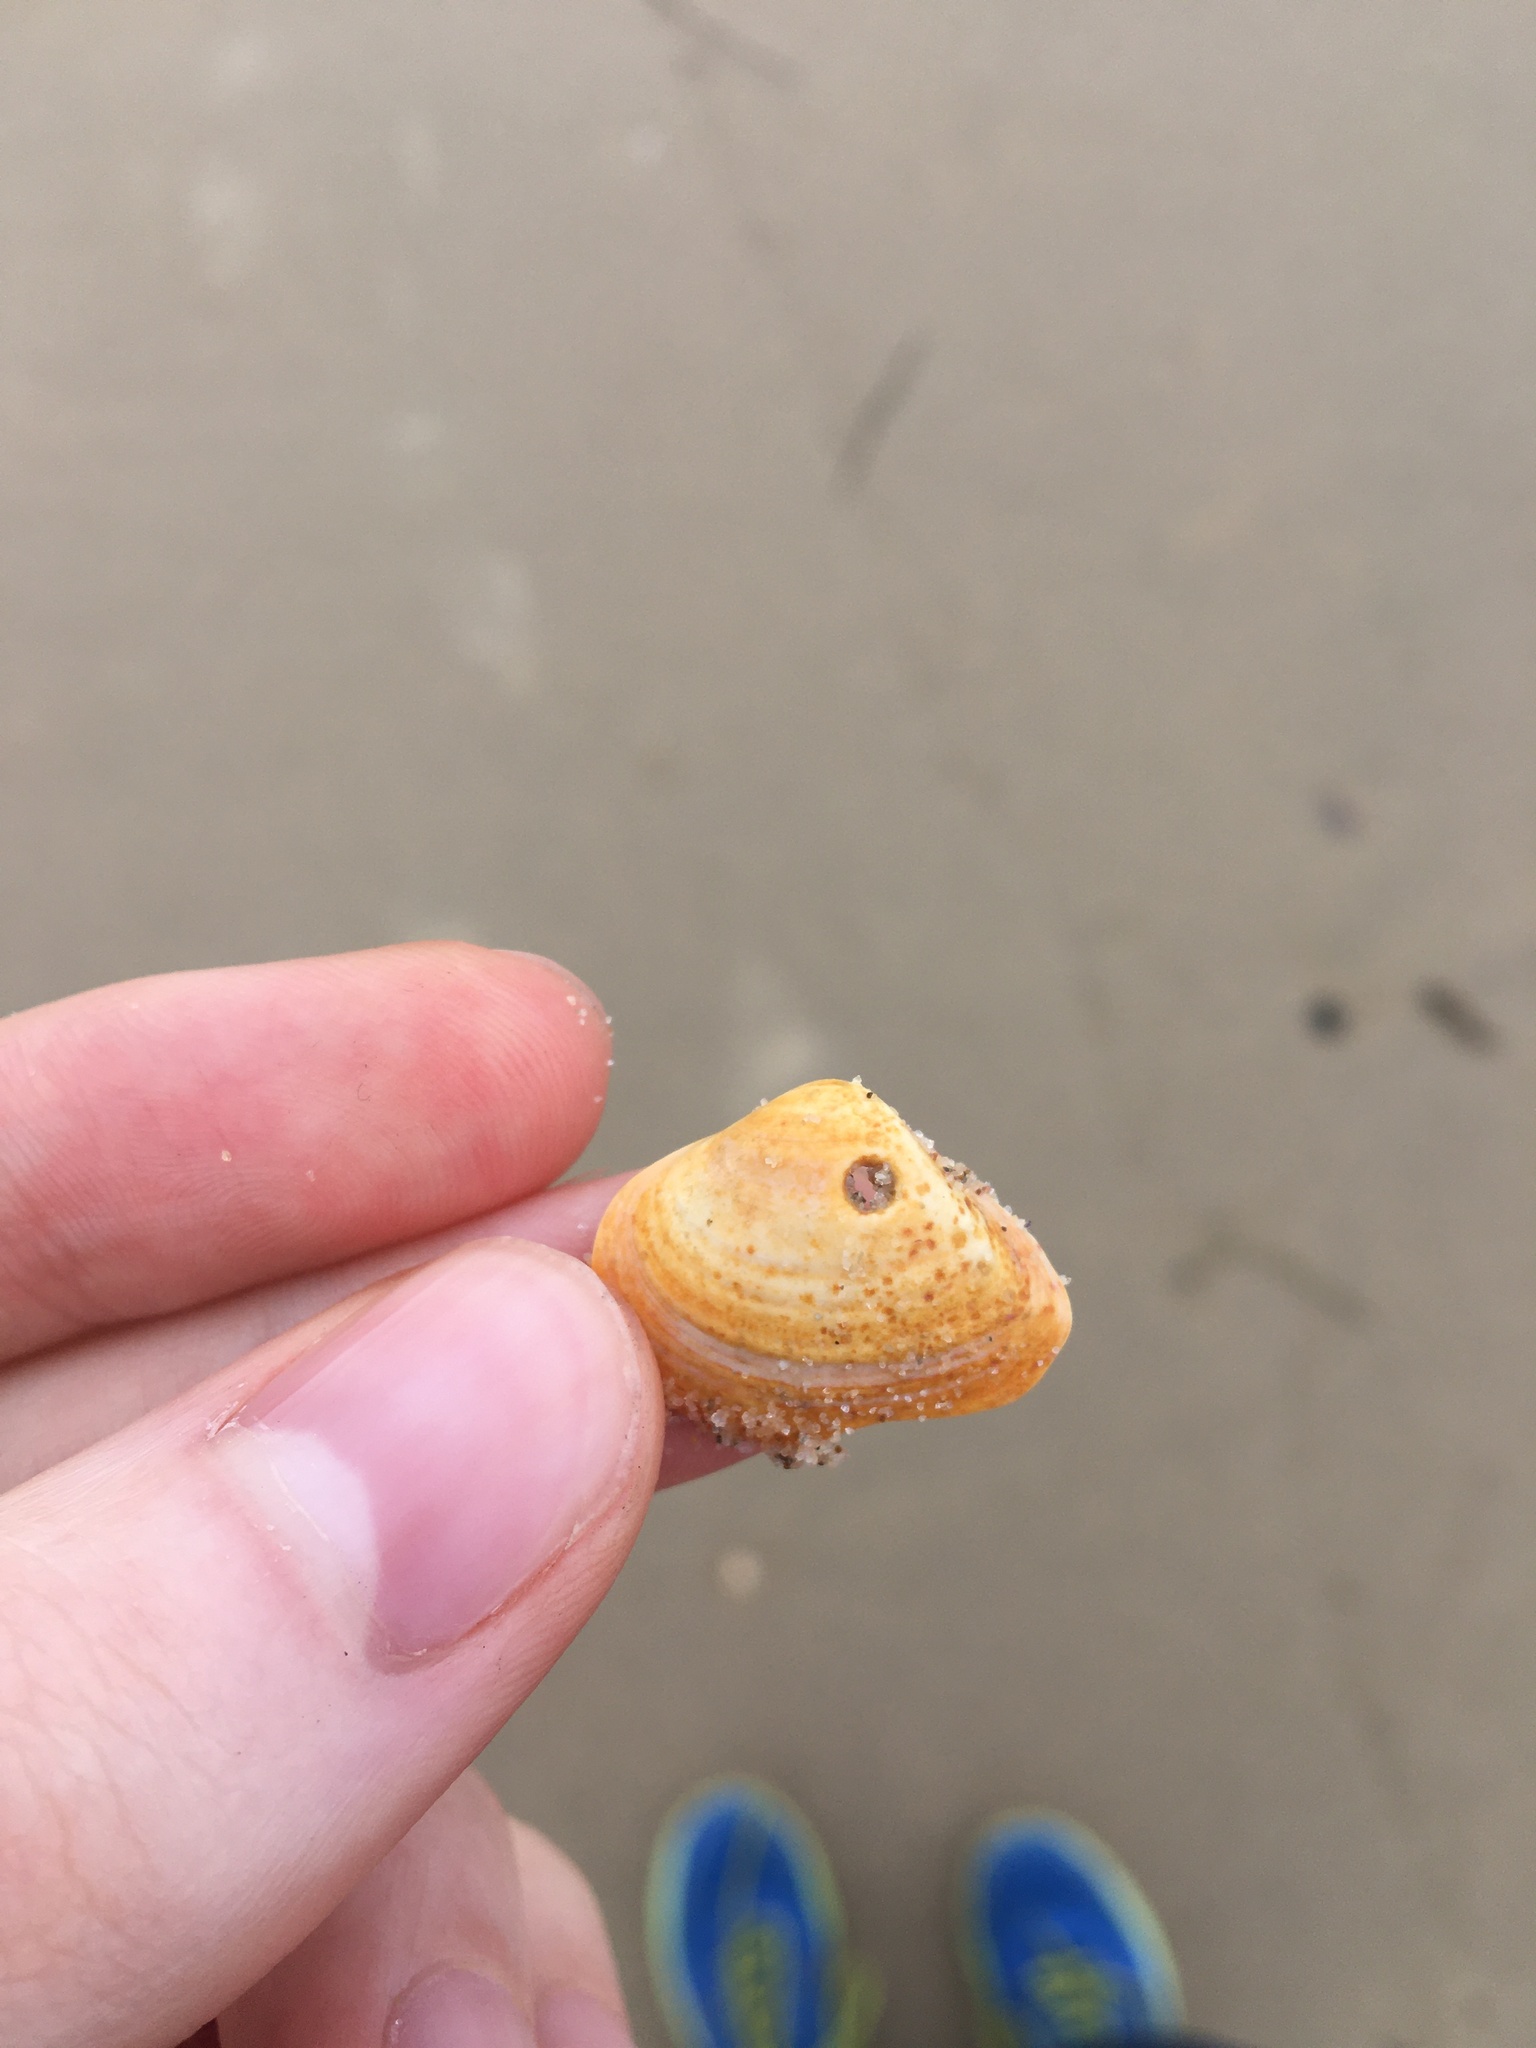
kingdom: Animalia
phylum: Mollusca
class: Bivalvia
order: Venerida
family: Mactridae
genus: Spisula
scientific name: Spisula trigonella
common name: Trigonal mactra
